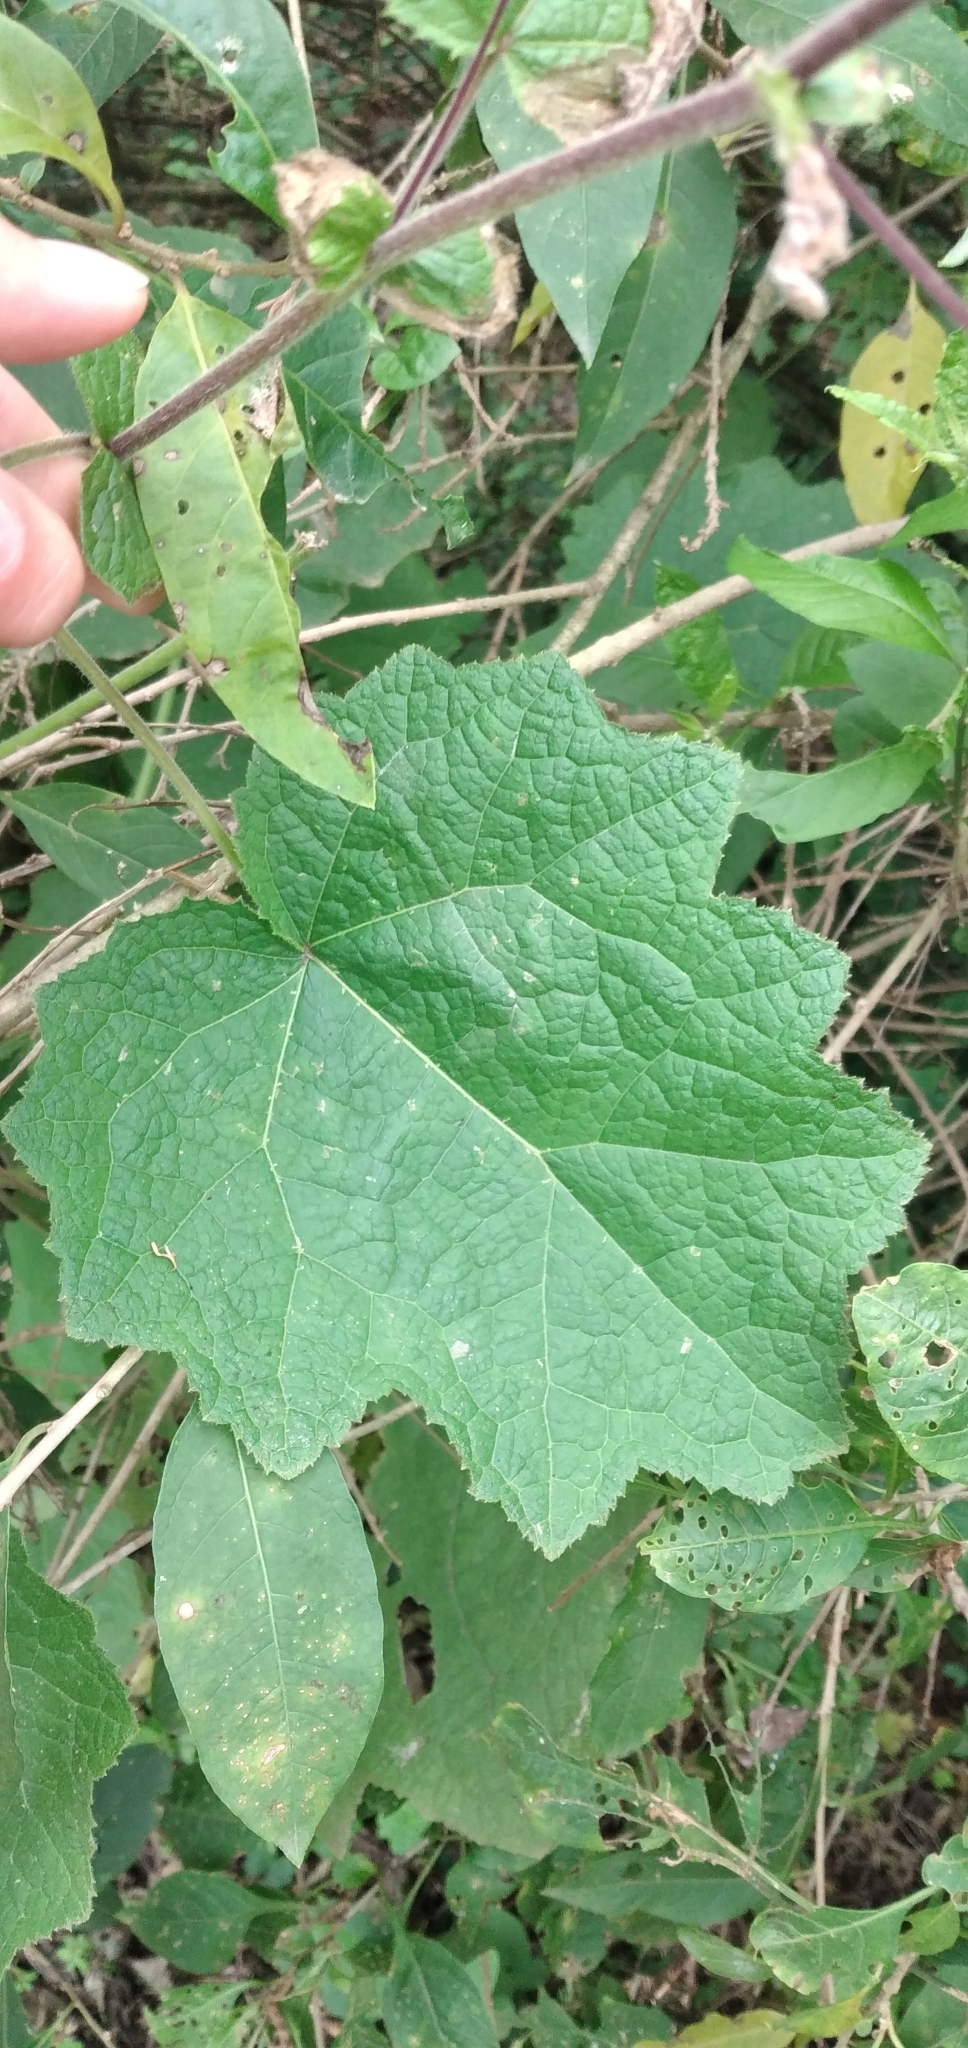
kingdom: Plantae
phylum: Tracheophyta
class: Magnoliopsida
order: Asterales
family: Asteraceae
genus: Jungia
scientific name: Jungia polita
